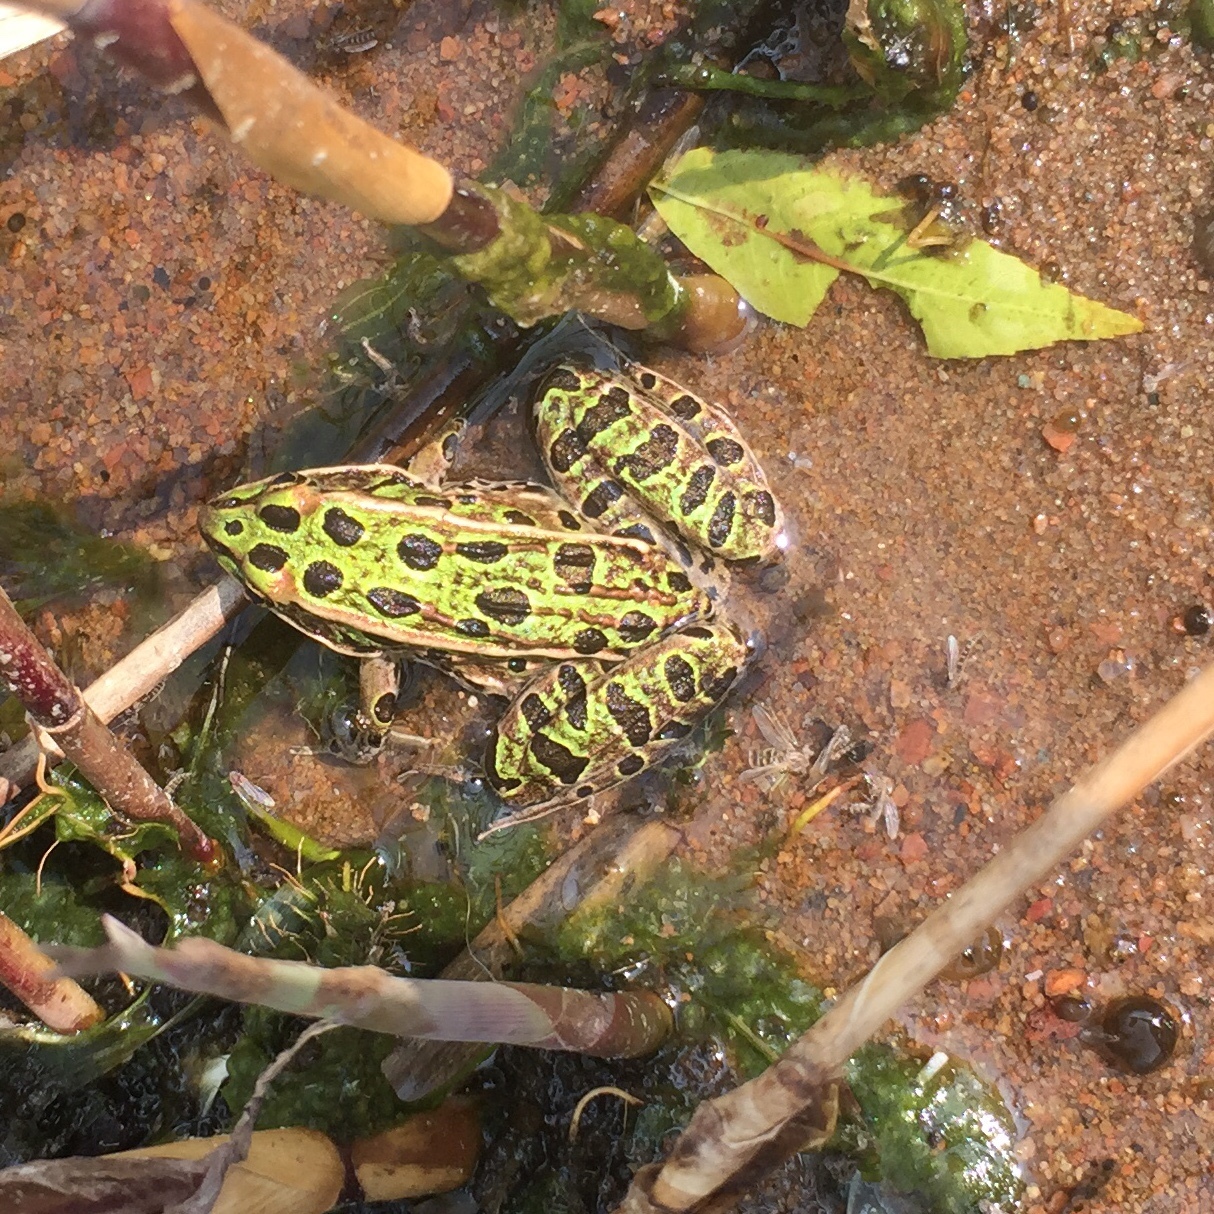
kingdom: Animalia
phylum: Chordata
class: Amphibia
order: Anura
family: Ranidae
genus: Lithobates
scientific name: Lithobates pipiens
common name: Northern leopard frog
